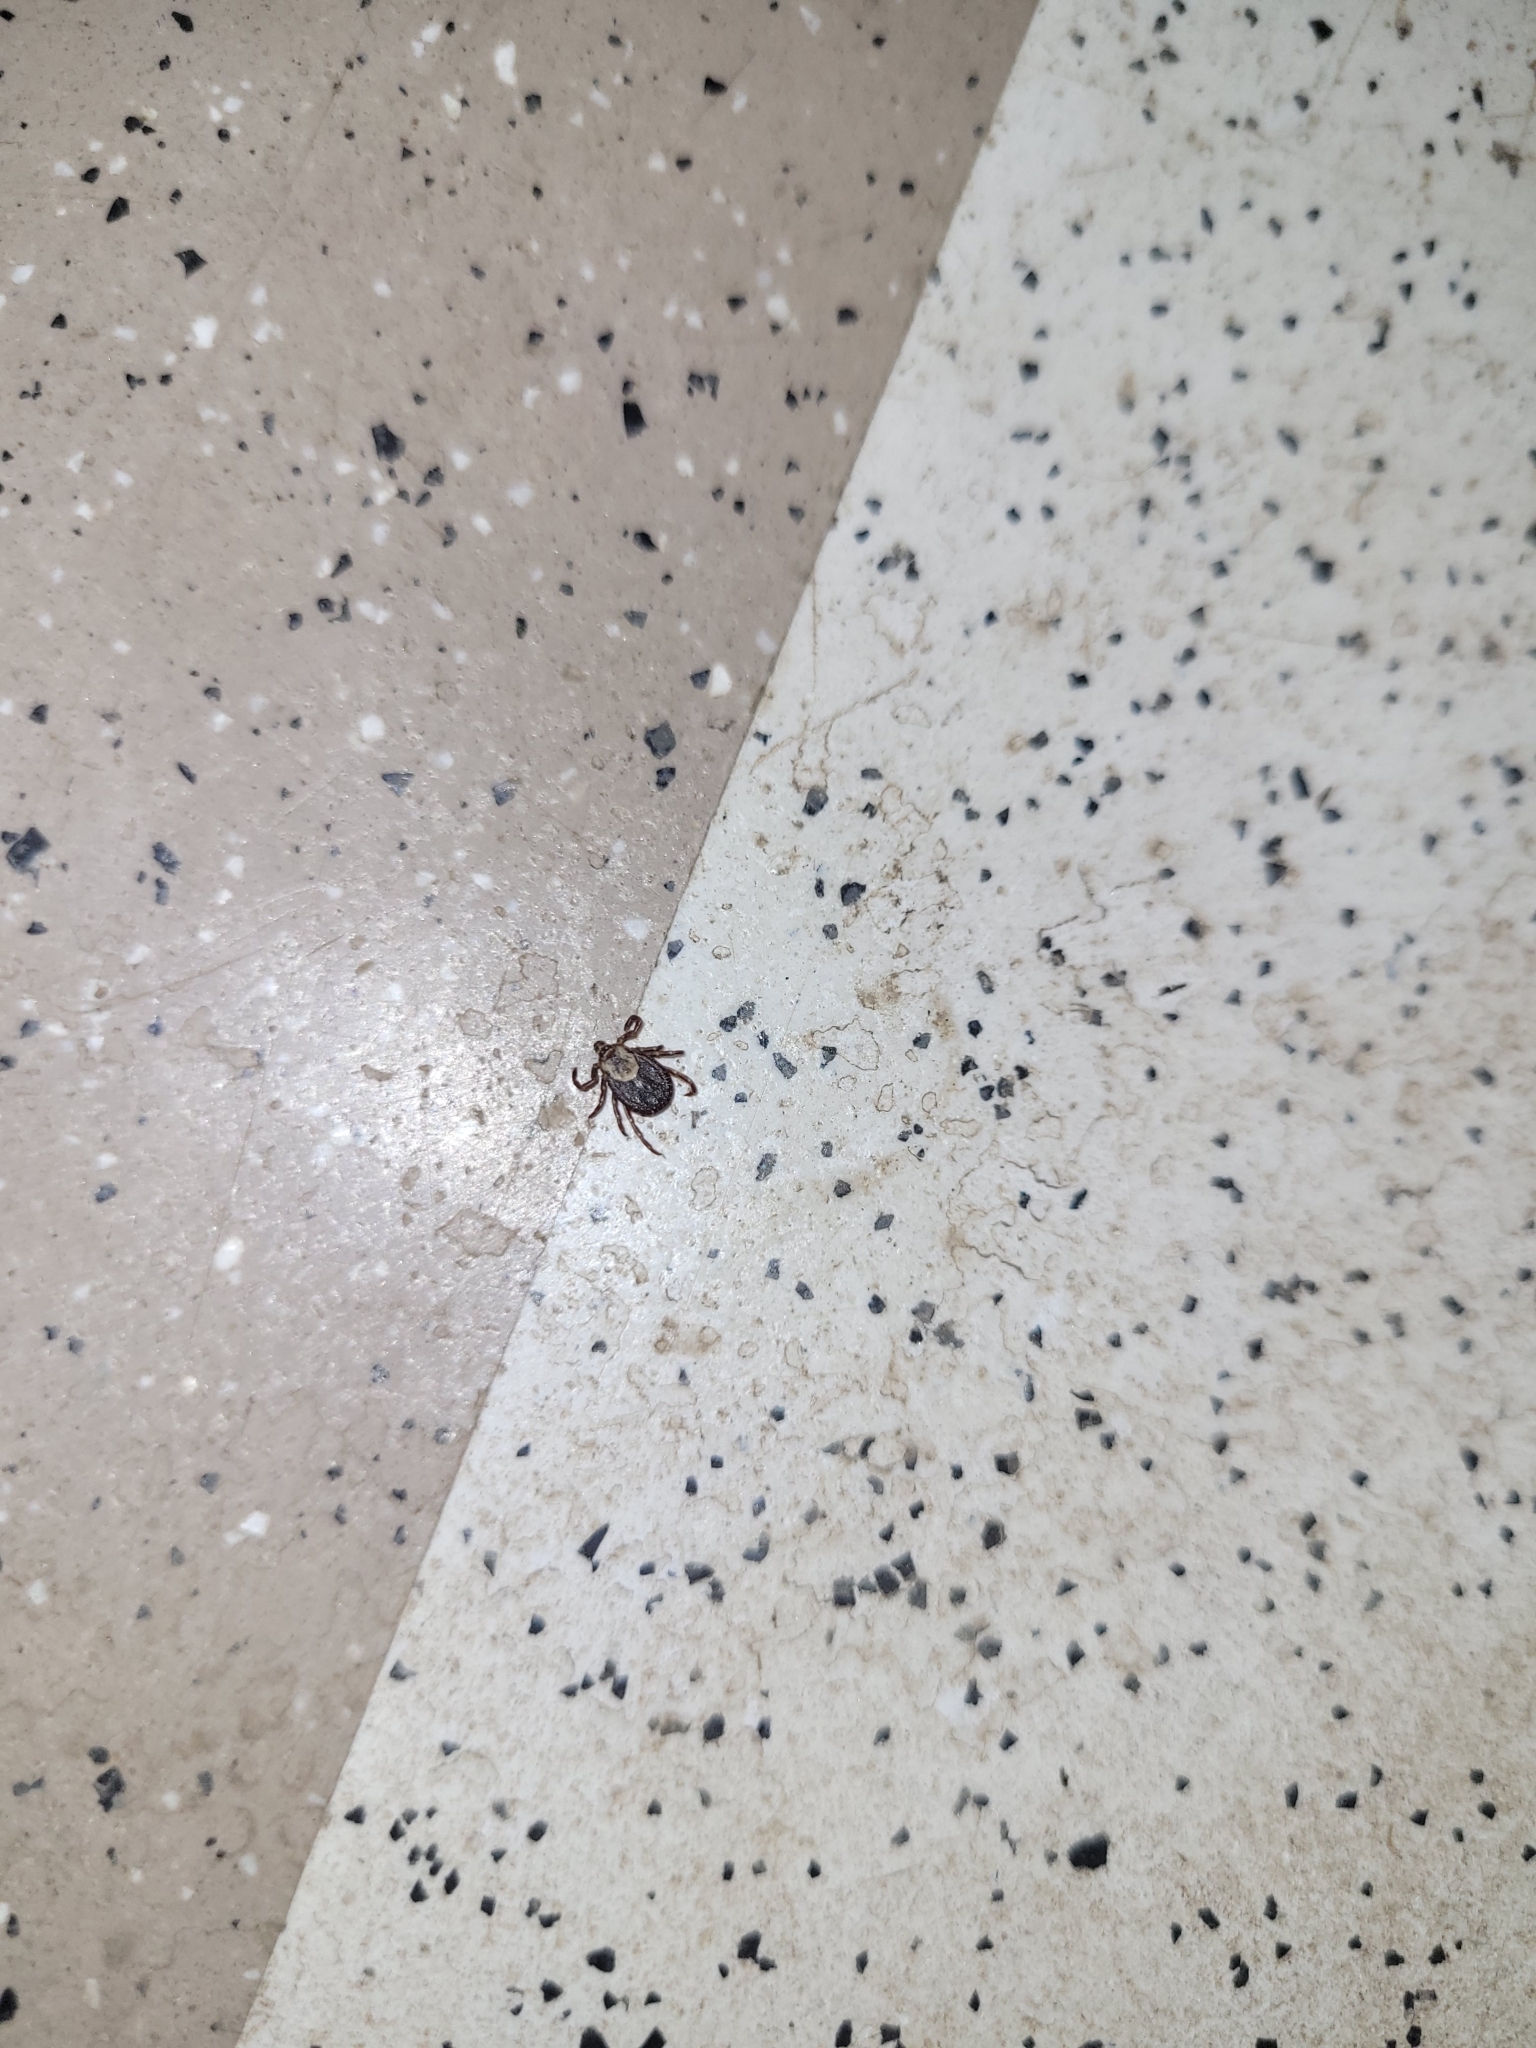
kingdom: Animalia
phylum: Arthropoda
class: Arachnida
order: Ixodida
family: Ixodidae
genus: Dermacentor
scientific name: Dermacentor variabilis
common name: American dog tick
